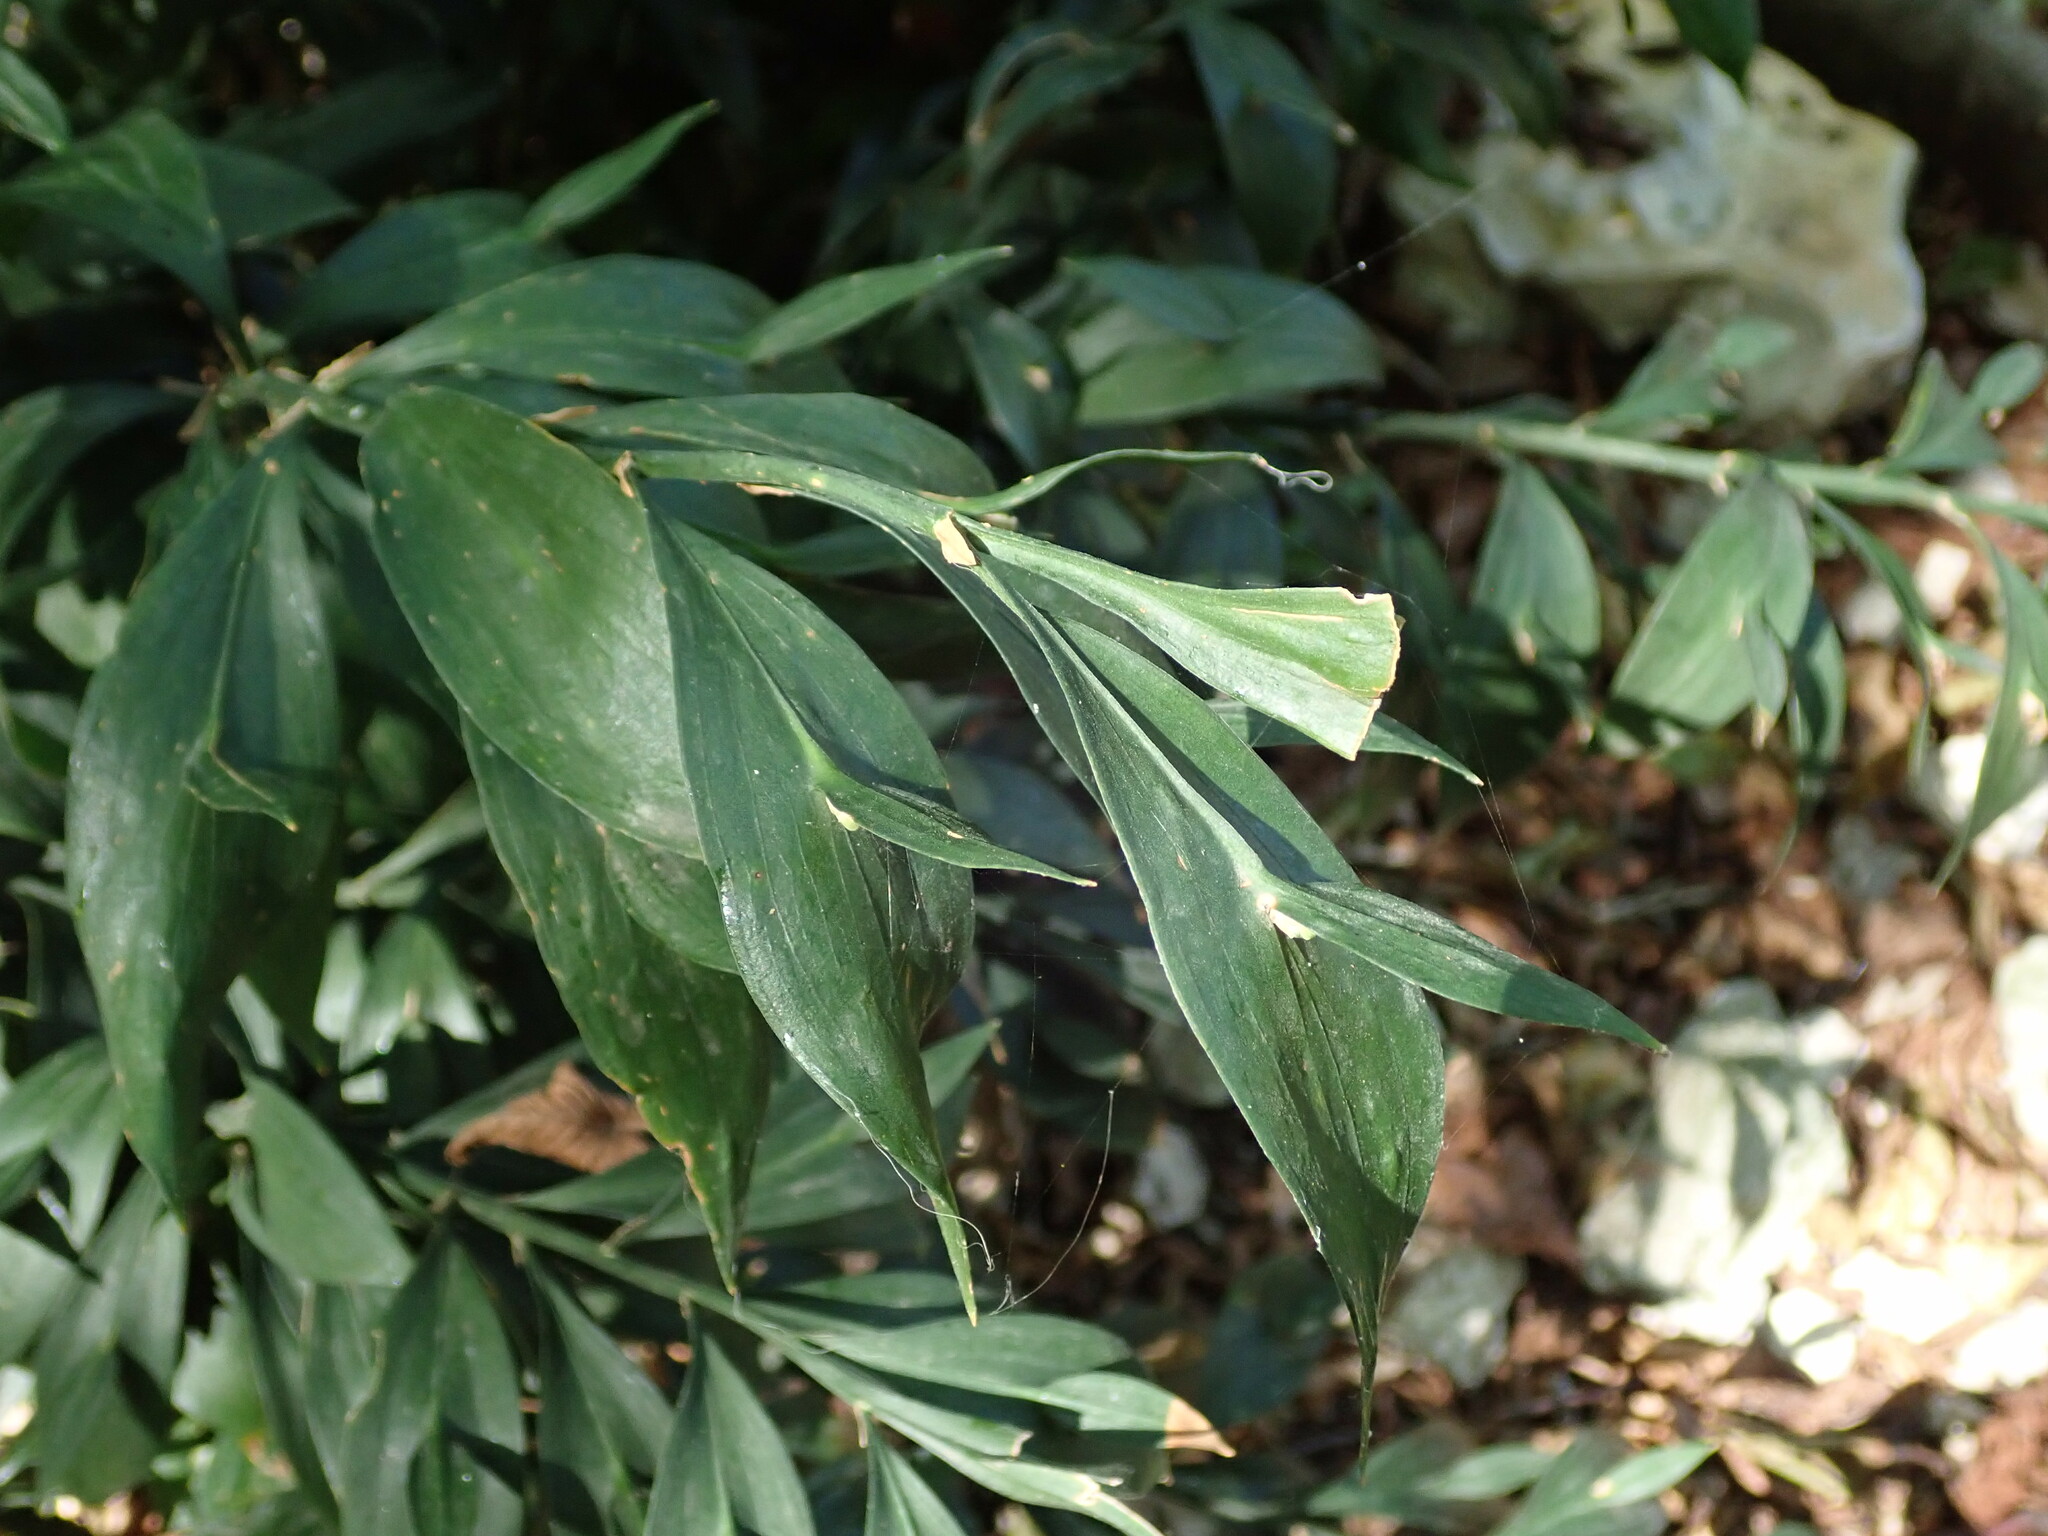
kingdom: Plantae
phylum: Tracheophyta
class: Liliopsida
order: Asparagales
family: Asparagaceae
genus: Ruscus
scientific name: Ruscus hypoglossum
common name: Spineless butcher's-broom
